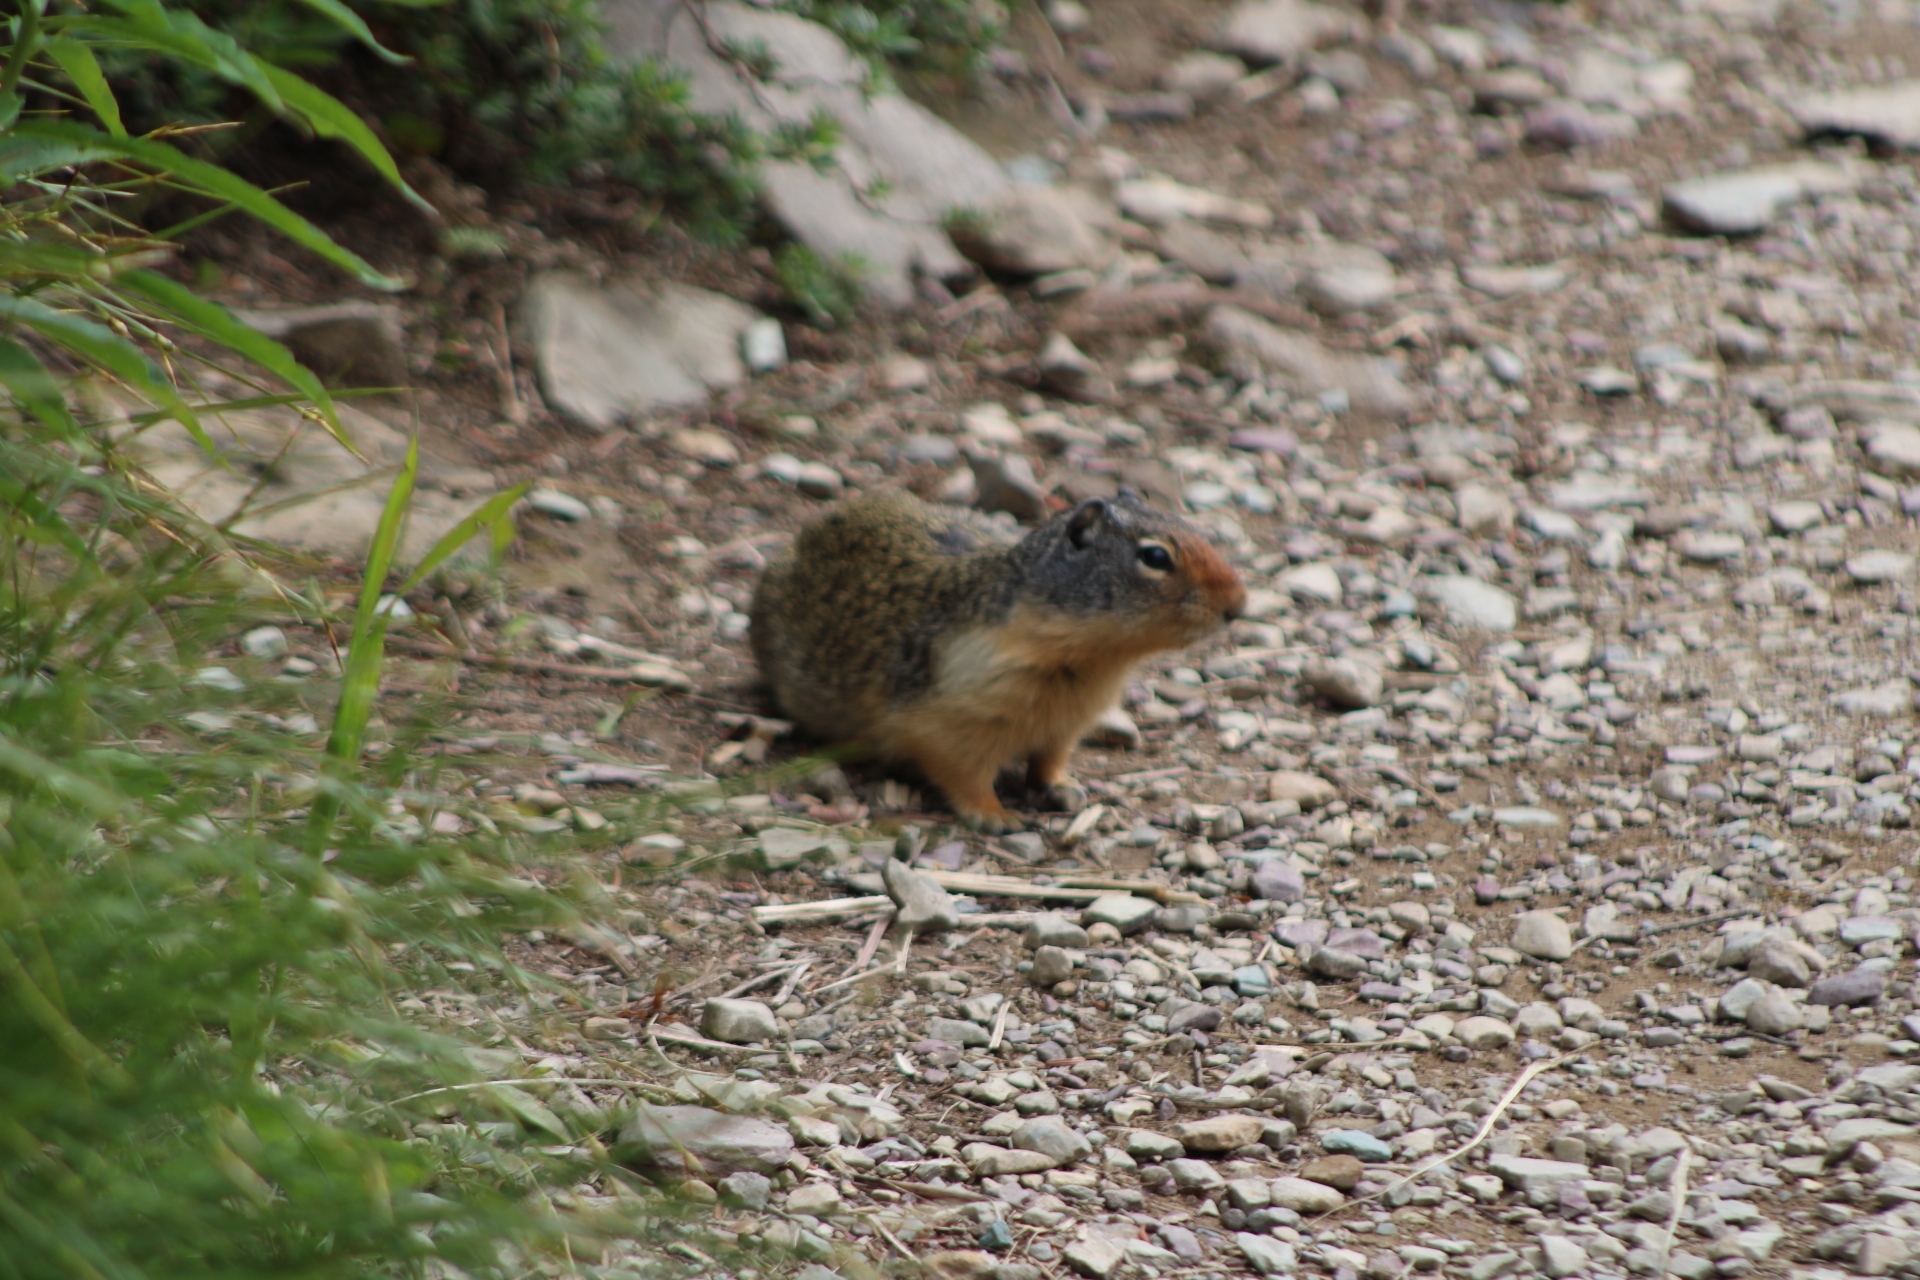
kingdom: Animalia
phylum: Chordata
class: Mammalia
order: Rodentia
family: Sciuridae
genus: Urocitellus
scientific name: Urocitellus columbianus
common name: Columbian ground squirrel
